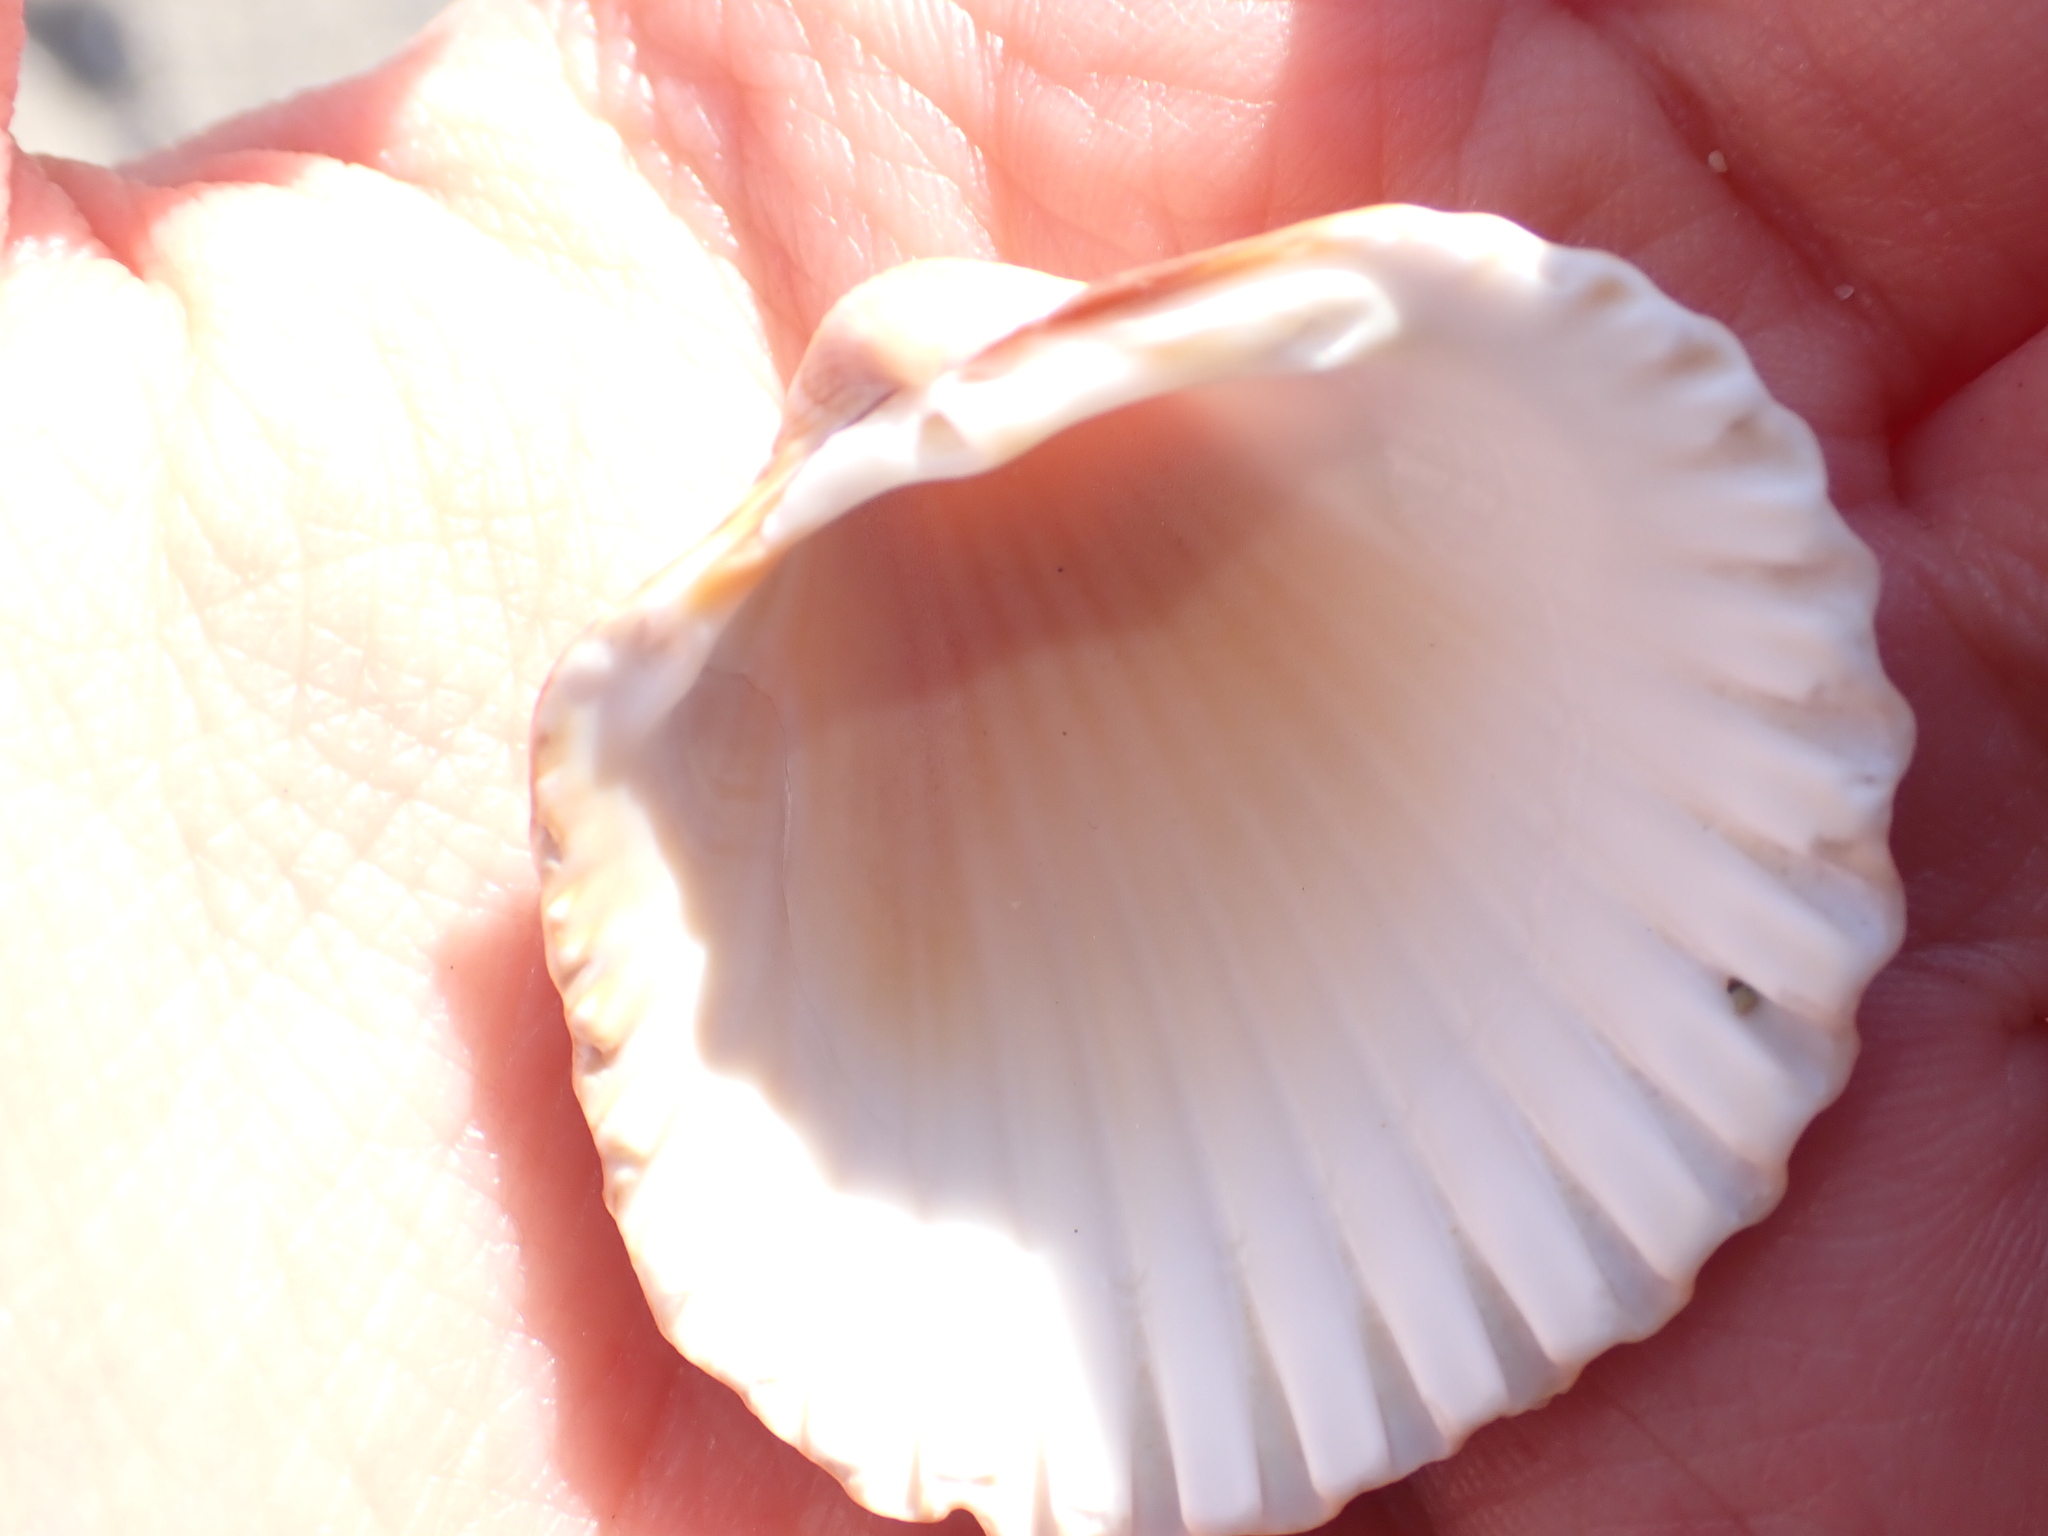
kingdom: Animalia
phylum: Mollusca
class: Bivalvia
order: Cardiida
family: Cardiidae
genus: Acanthocardia
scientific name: Acanthocardia tuberculata
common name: Rough cockle
